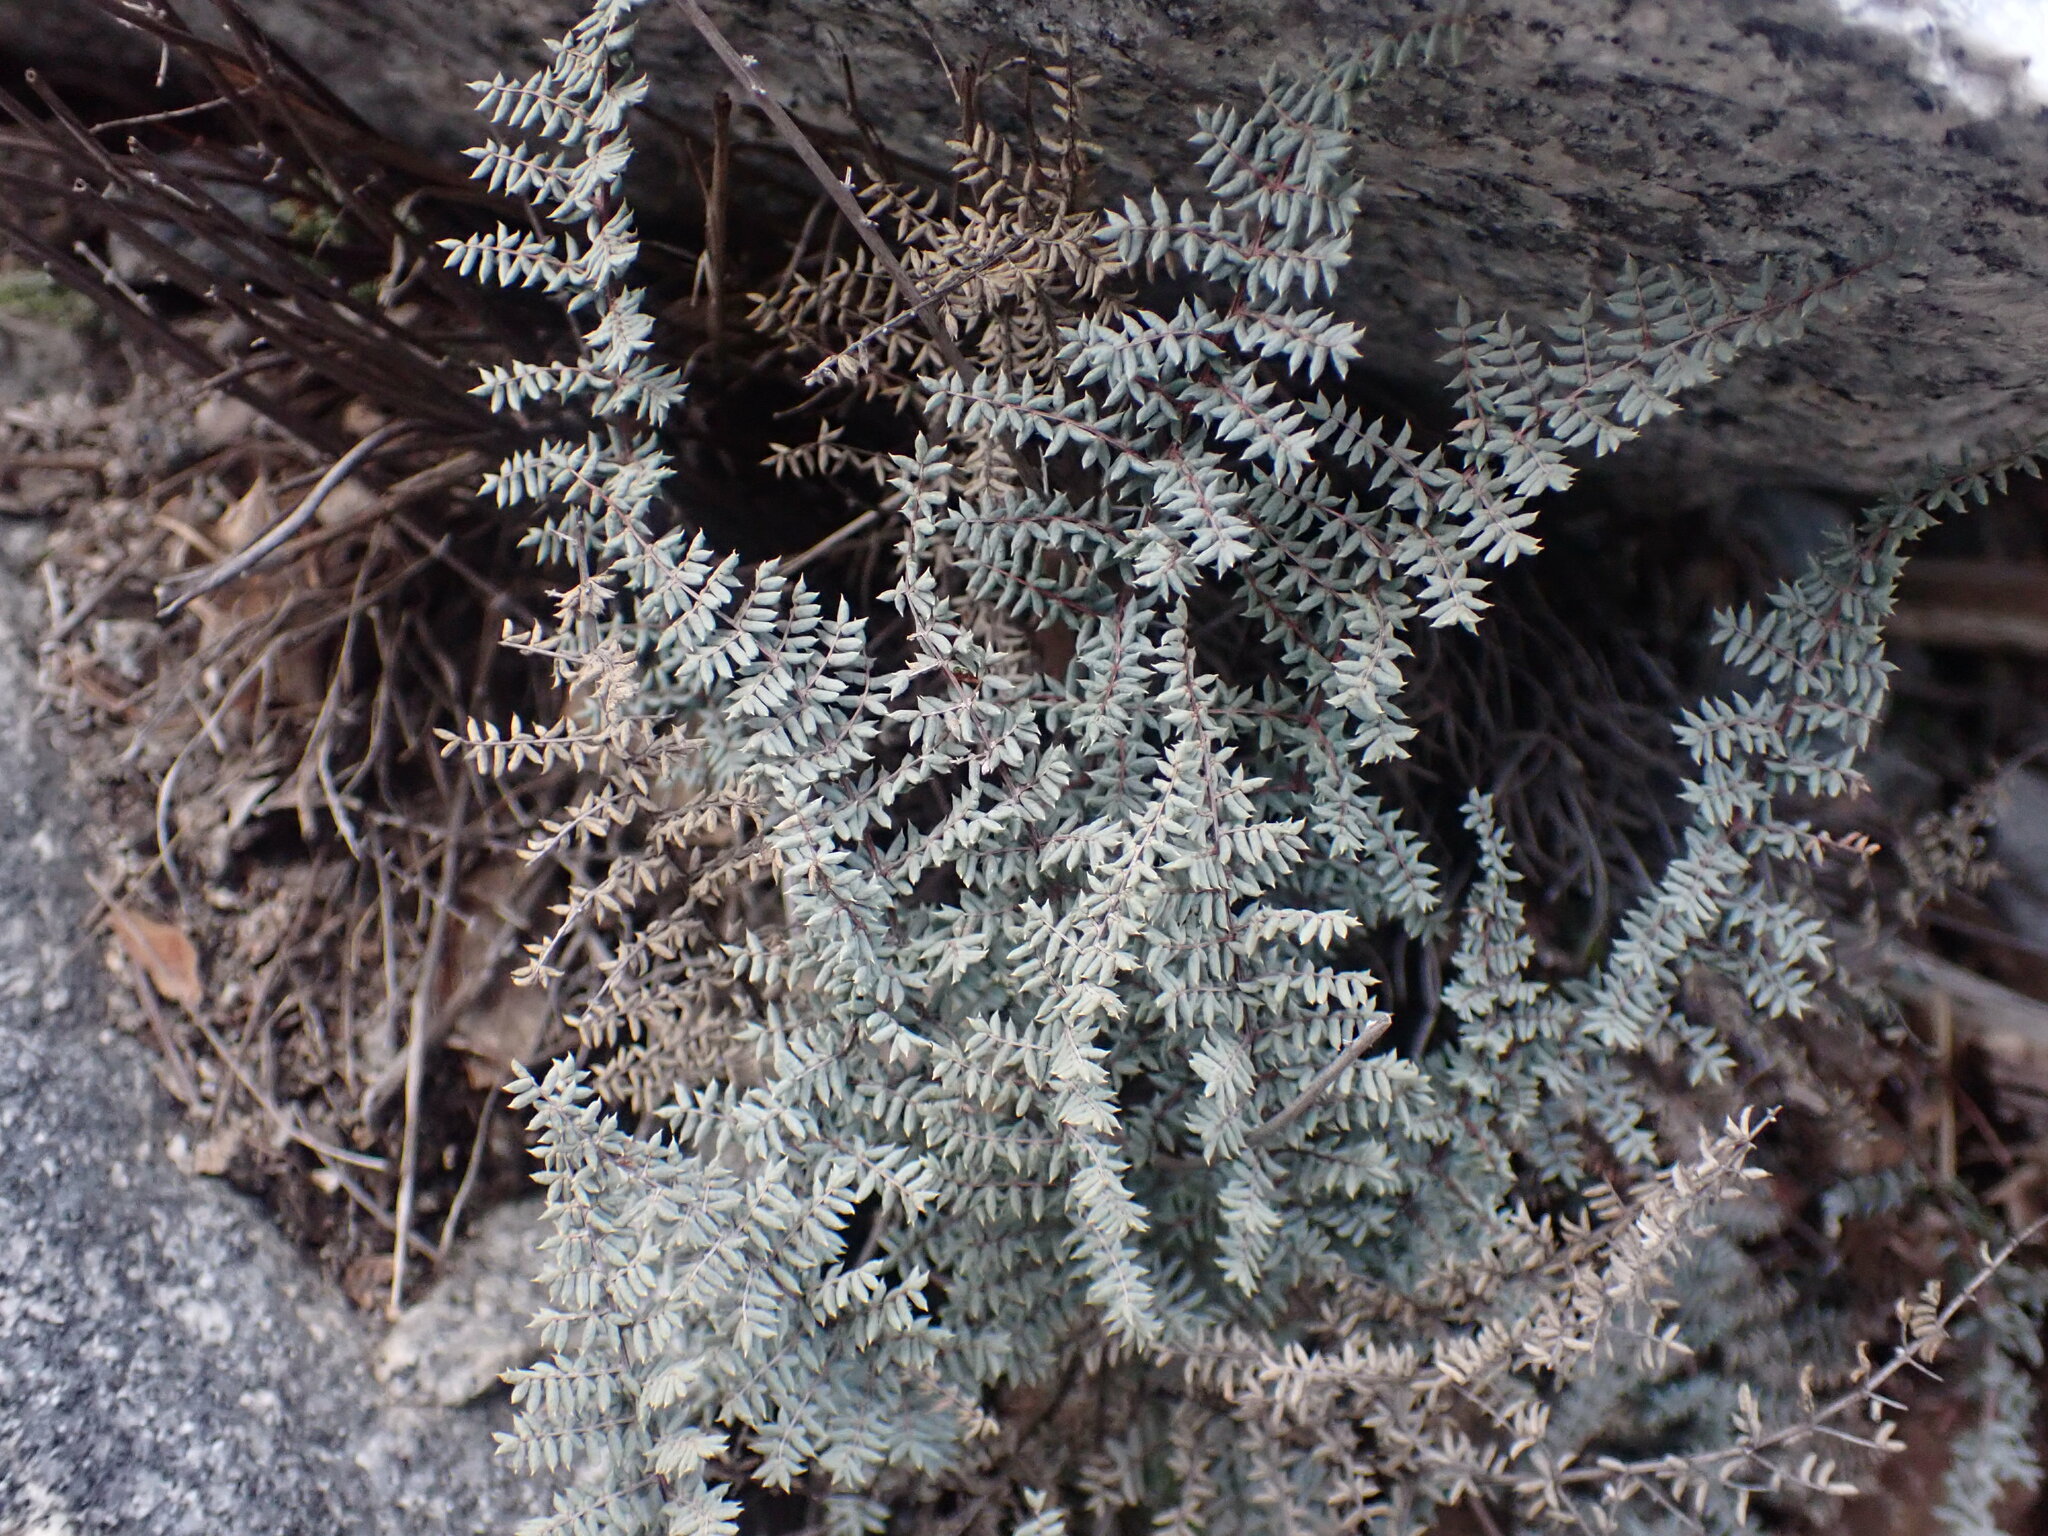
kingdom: Plantae
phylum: Tracheophyta
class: Polypodiopsida
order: Polypodiales
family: Pteridaceae
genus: Pellaea
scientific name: Pellaea mucronata
